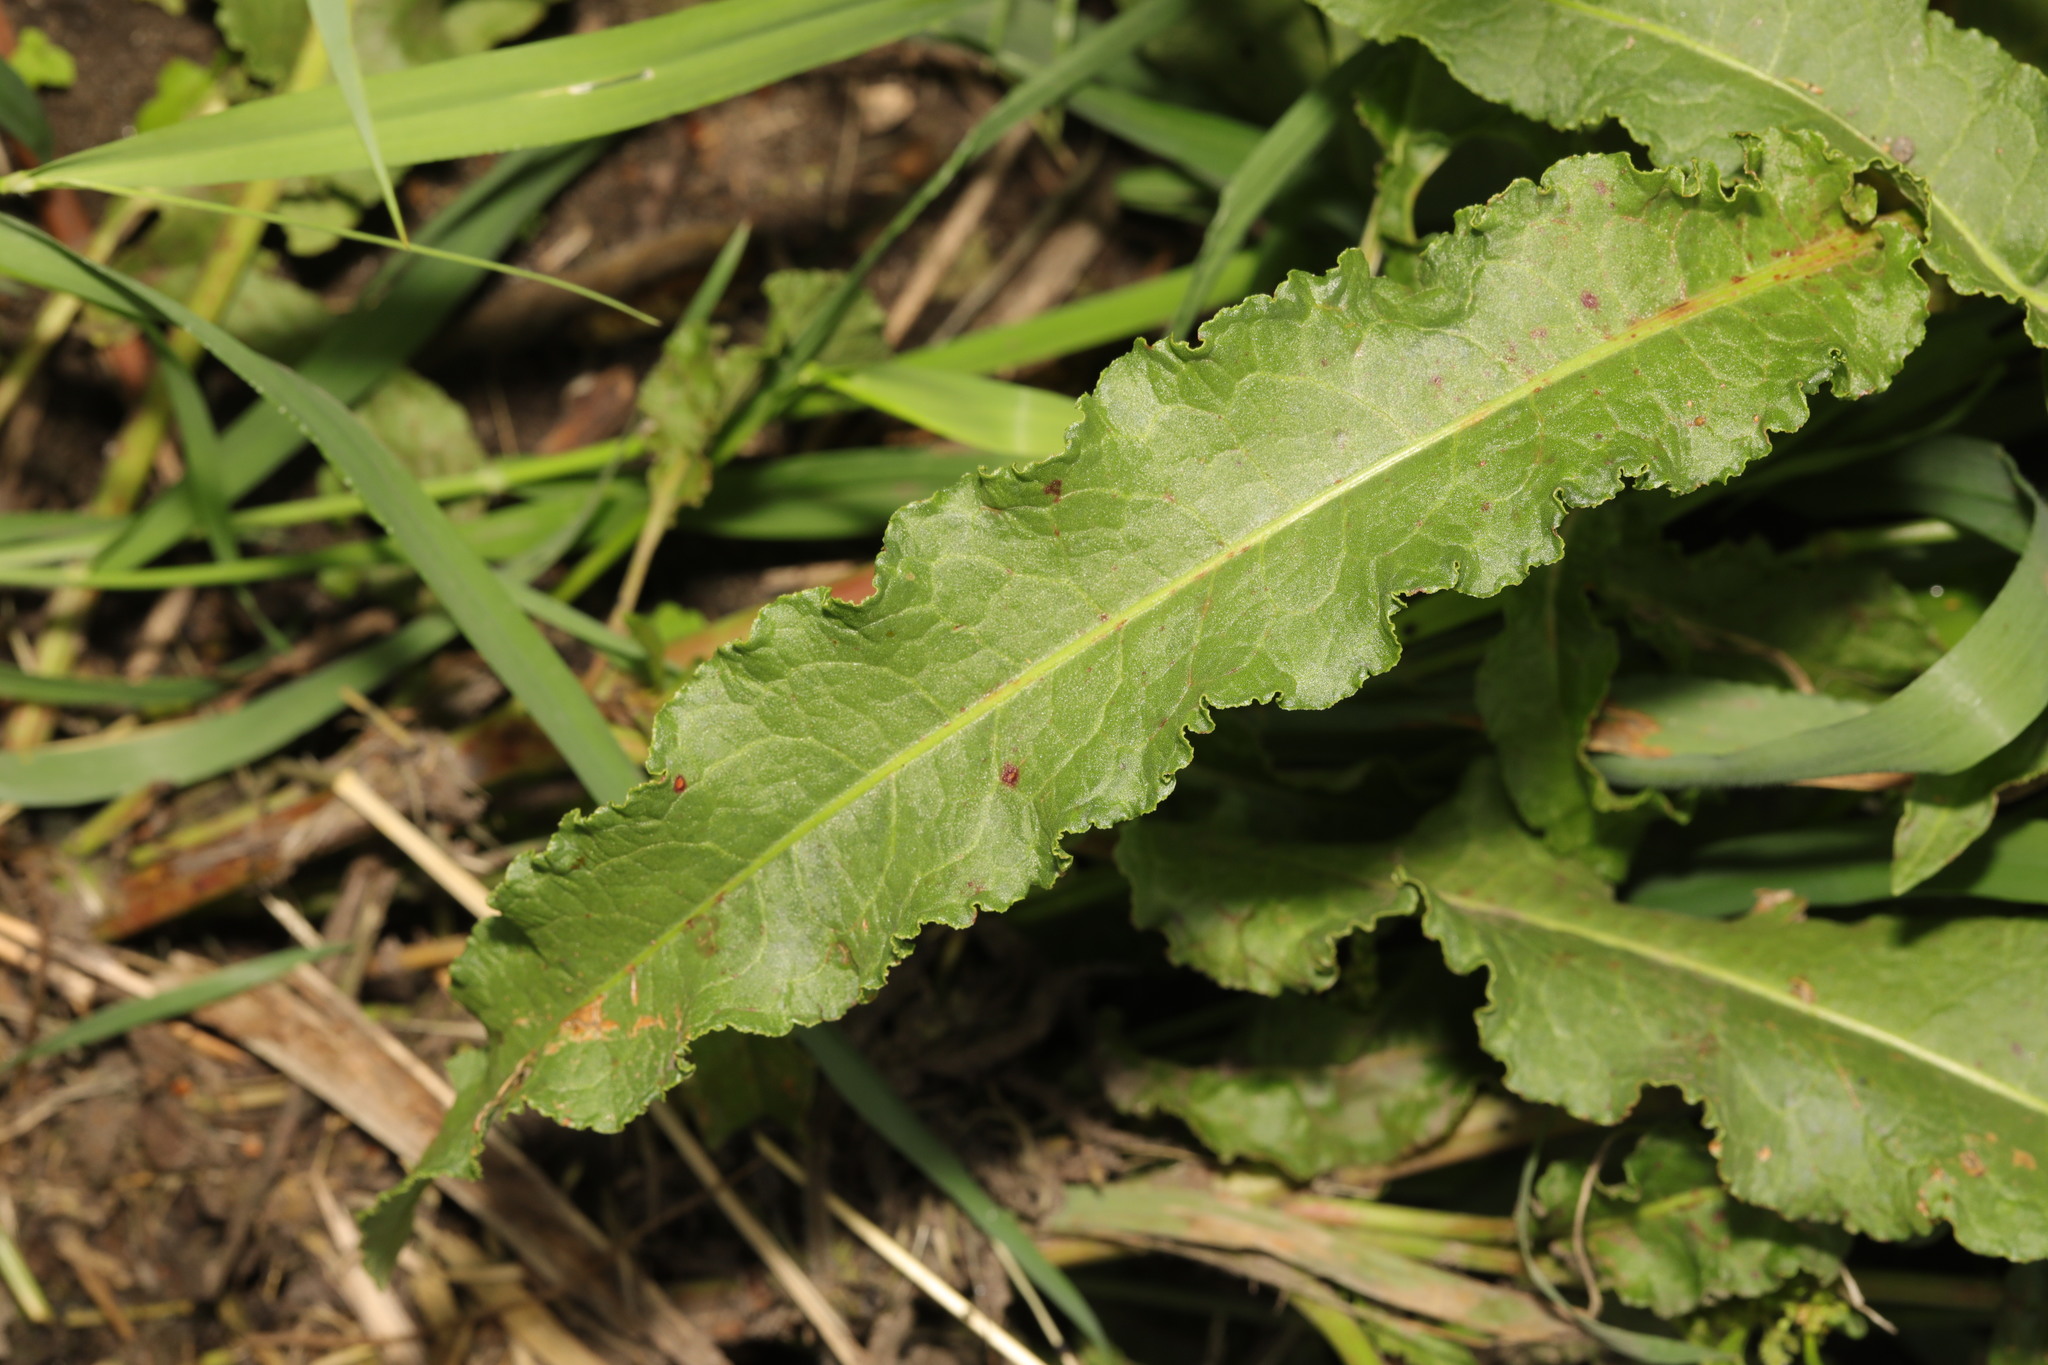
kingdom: Plantae
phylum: Tracheophyta
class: Magnoliopsida
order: Caryophyllales
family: Polygonaceae
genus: Rumex
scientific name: Rumex crispus
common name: Curled dock
